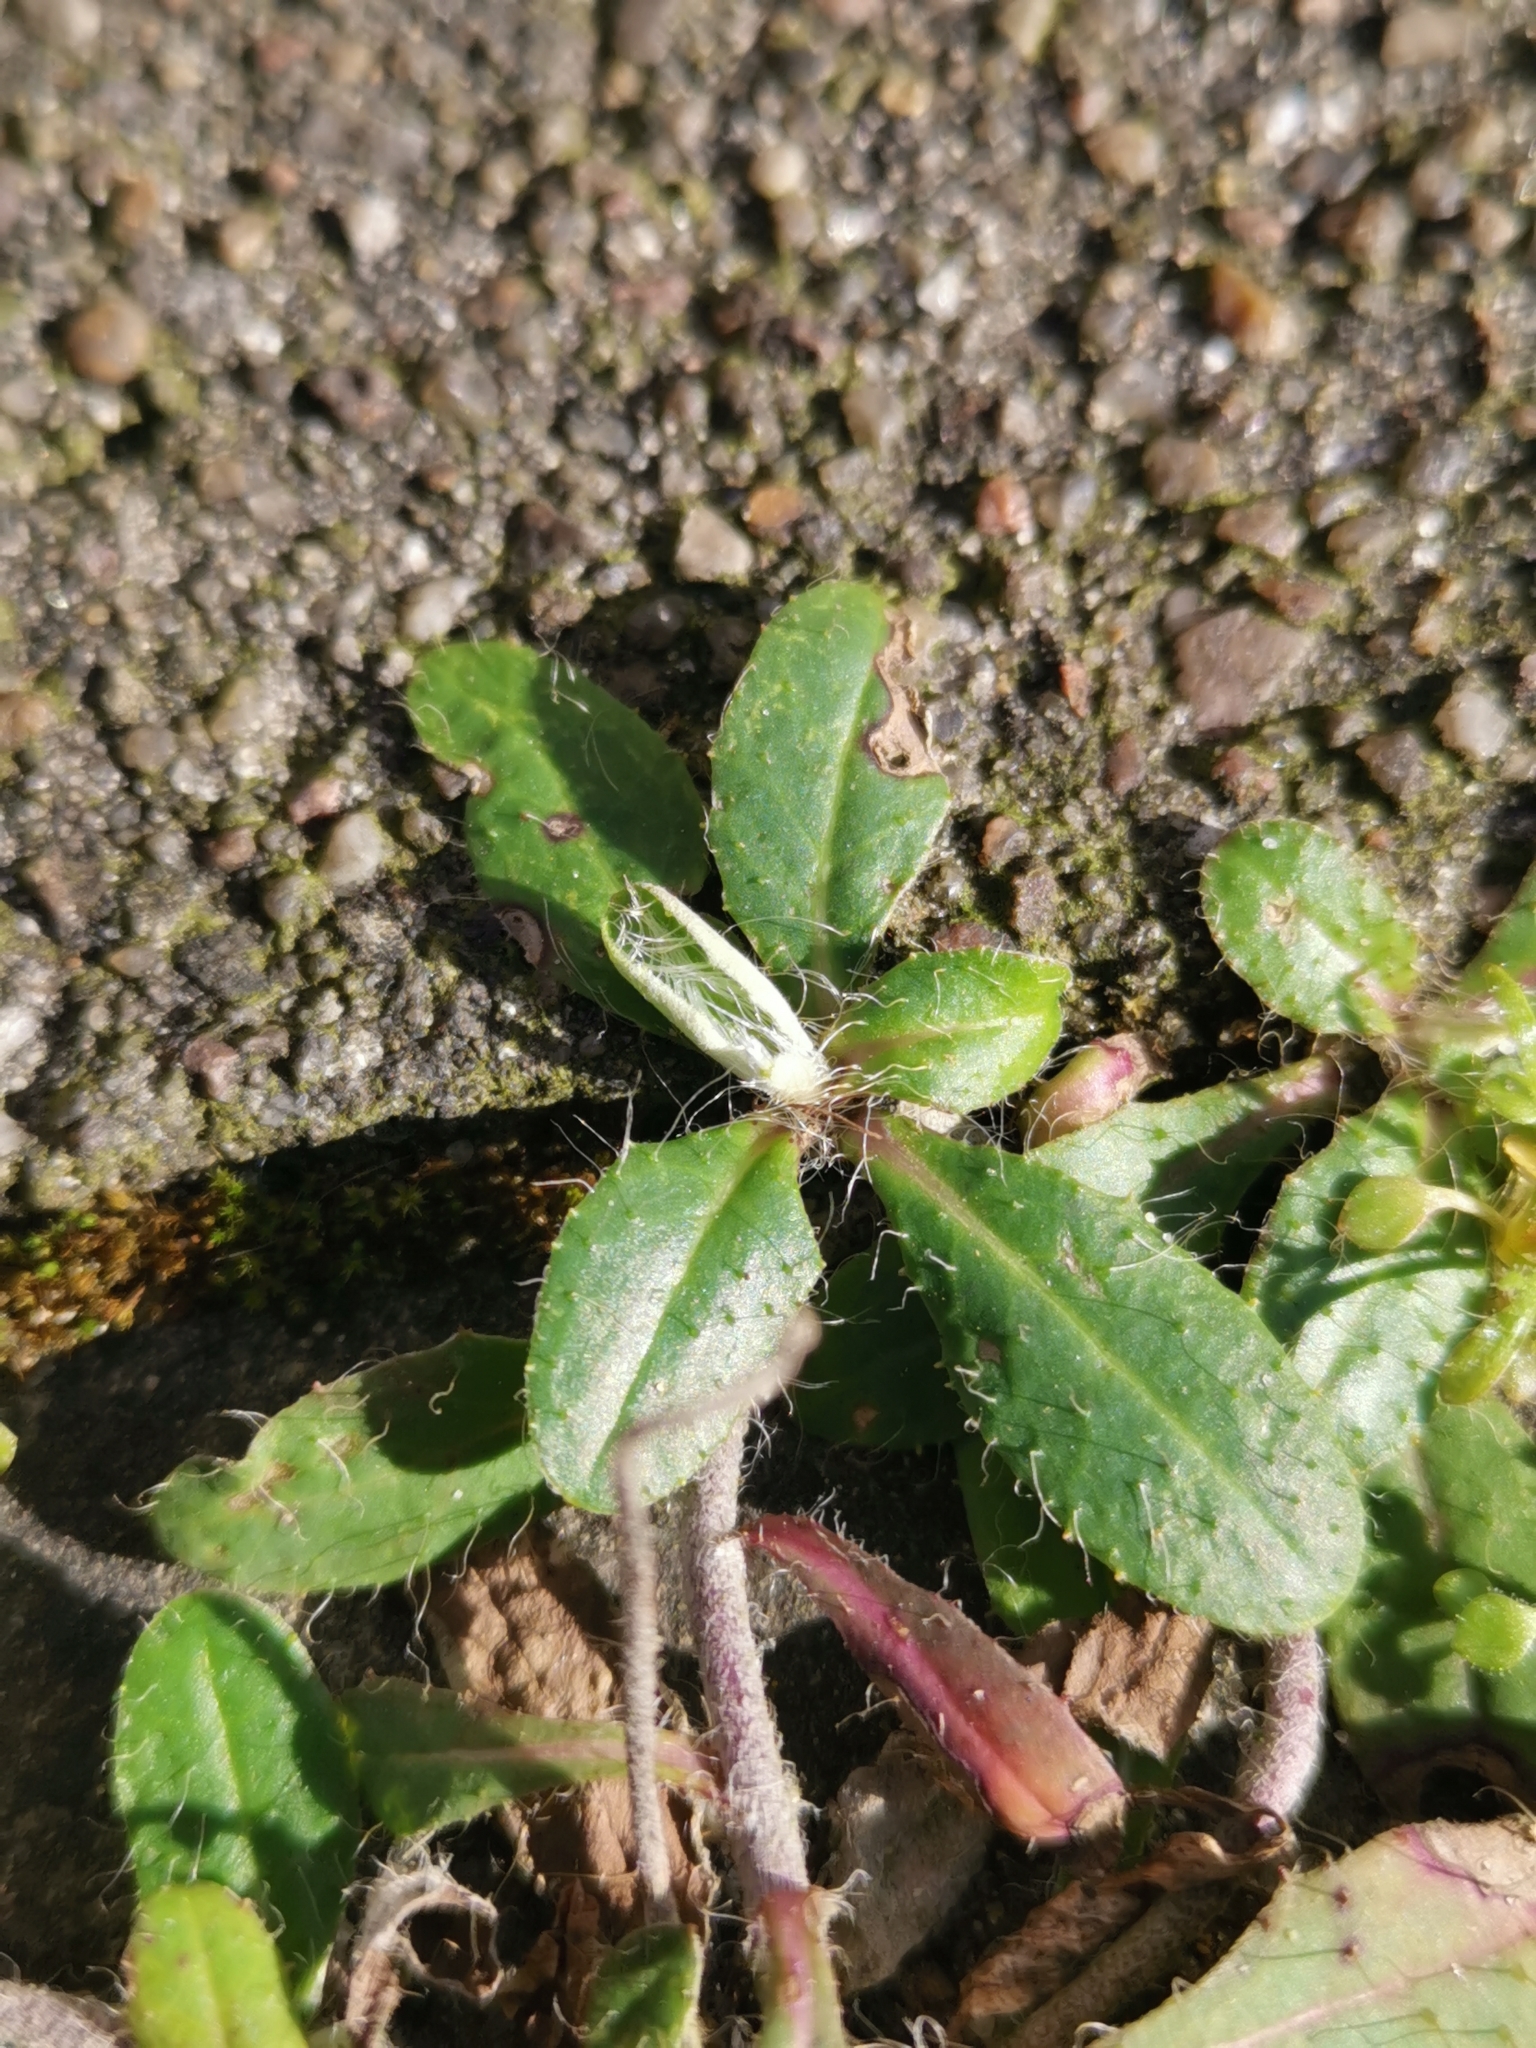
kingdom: Plantae
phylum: Tracheophyta
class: Magnoliopsida
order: Asterales
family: Asteraceae
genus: Pilosella
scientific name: Pilosella officinarum
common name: Mouse-ear hawkweed
